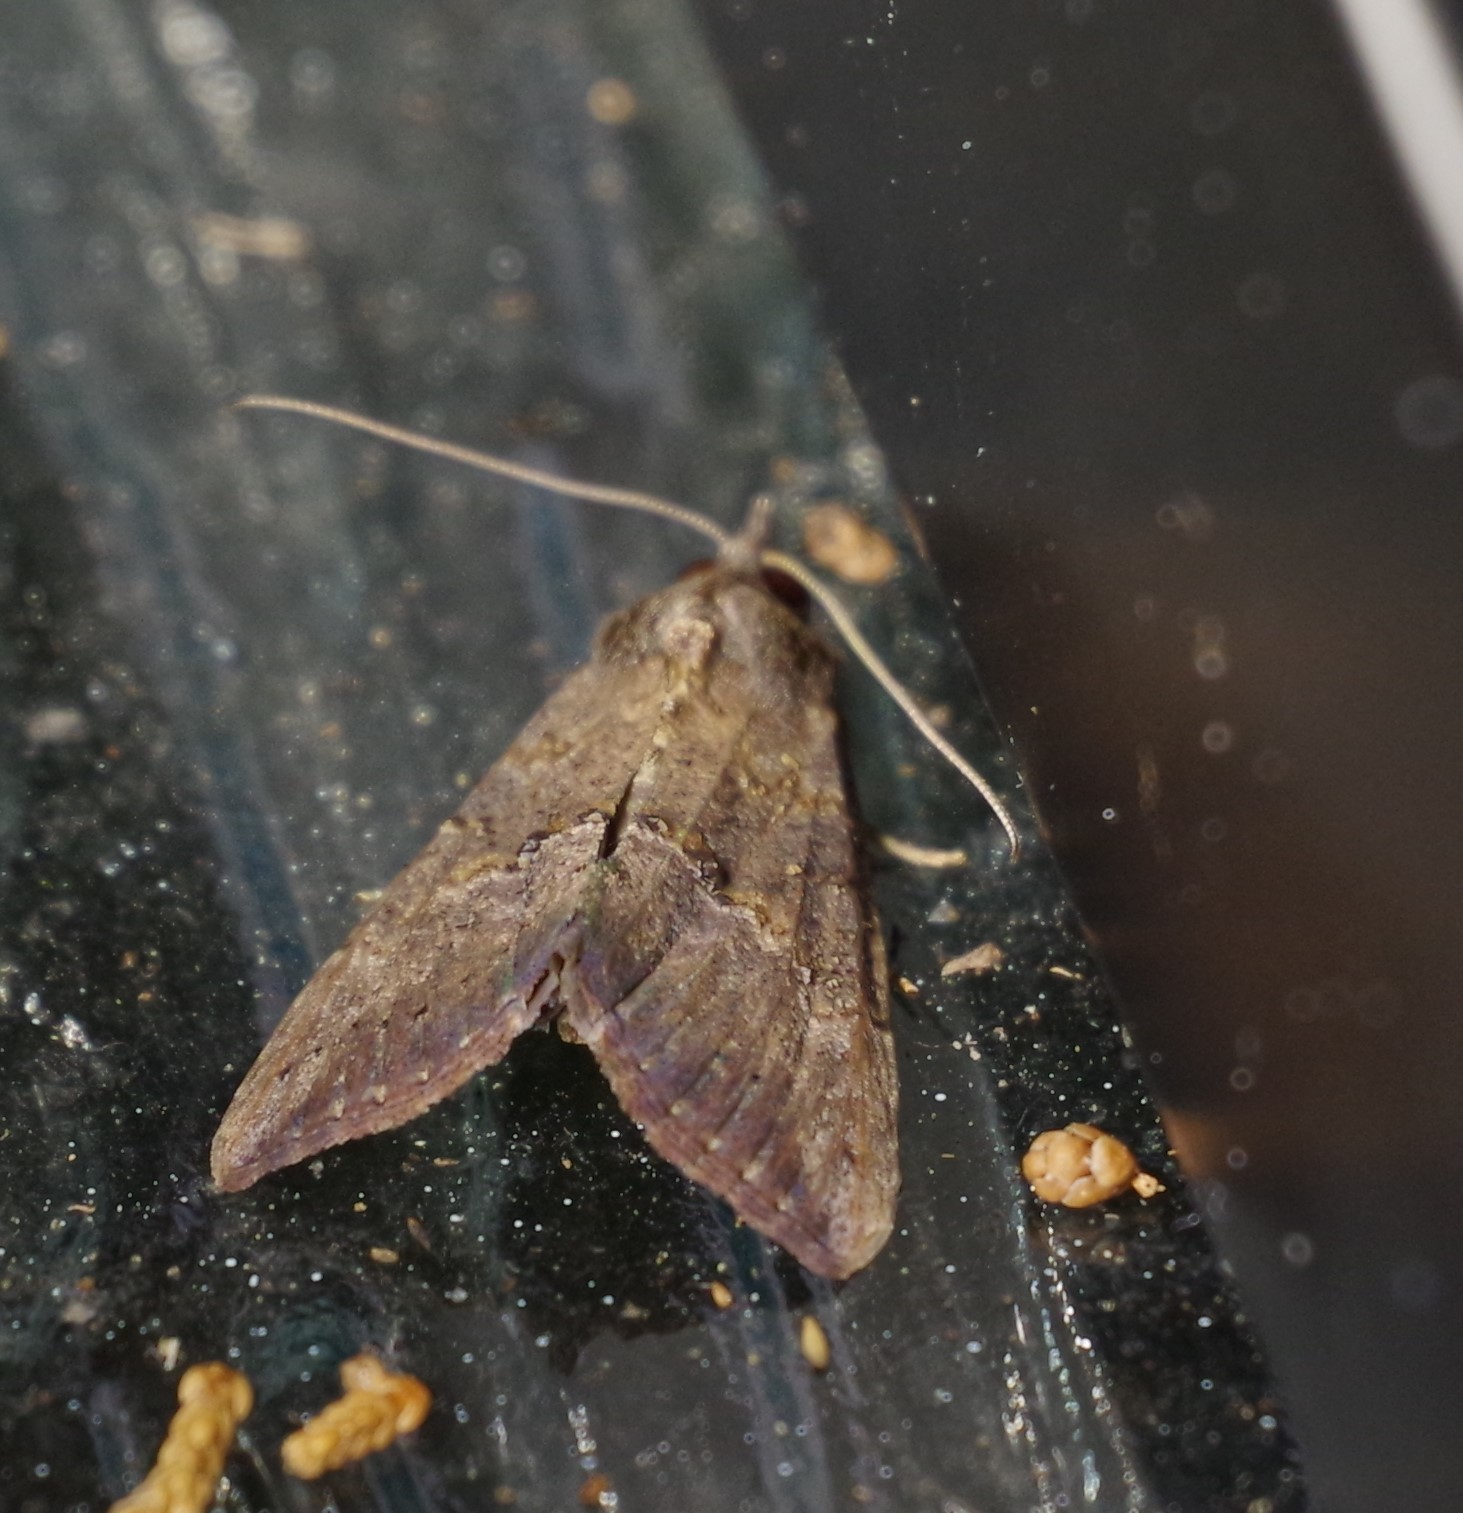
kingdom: Animalia
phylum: Arthropoda
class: Insecta
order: Lepidoptera
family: Erebidae
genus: Hypena
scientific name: Hypena scabra
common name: Green cloverworm
